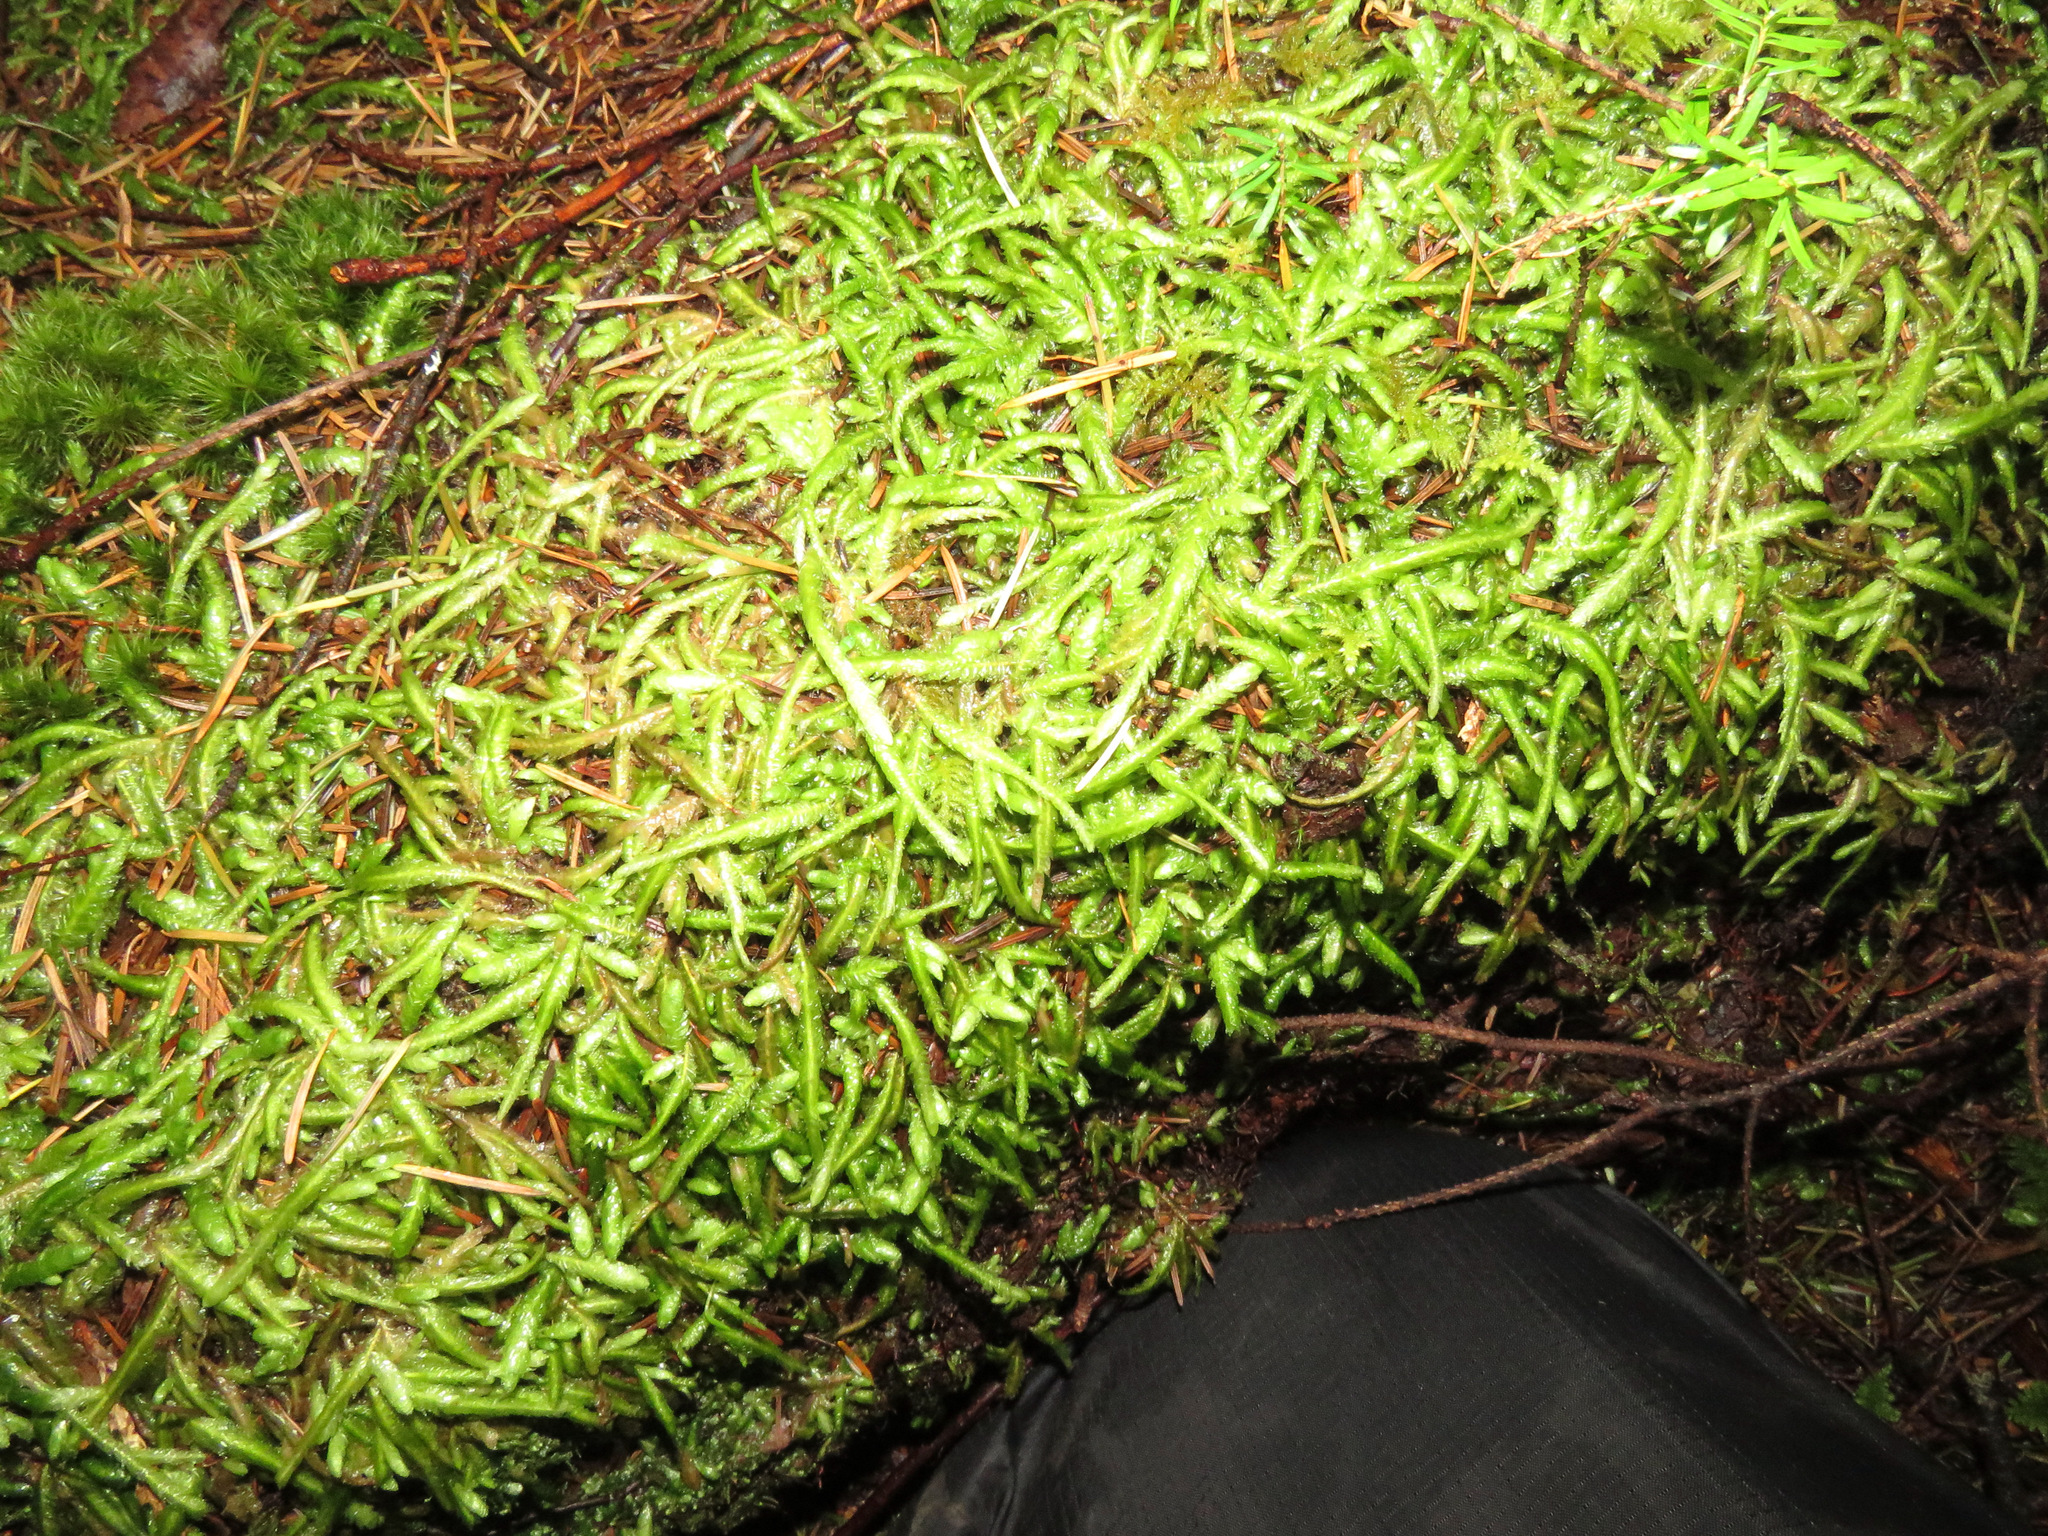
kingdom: Plantae
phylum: Bryophyta
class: Bryopsida
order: Hypnales
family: Plagiotheciaceae
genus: Plagiothecium
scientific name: Plagiothecium undulatum
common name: Waved silk-moss
